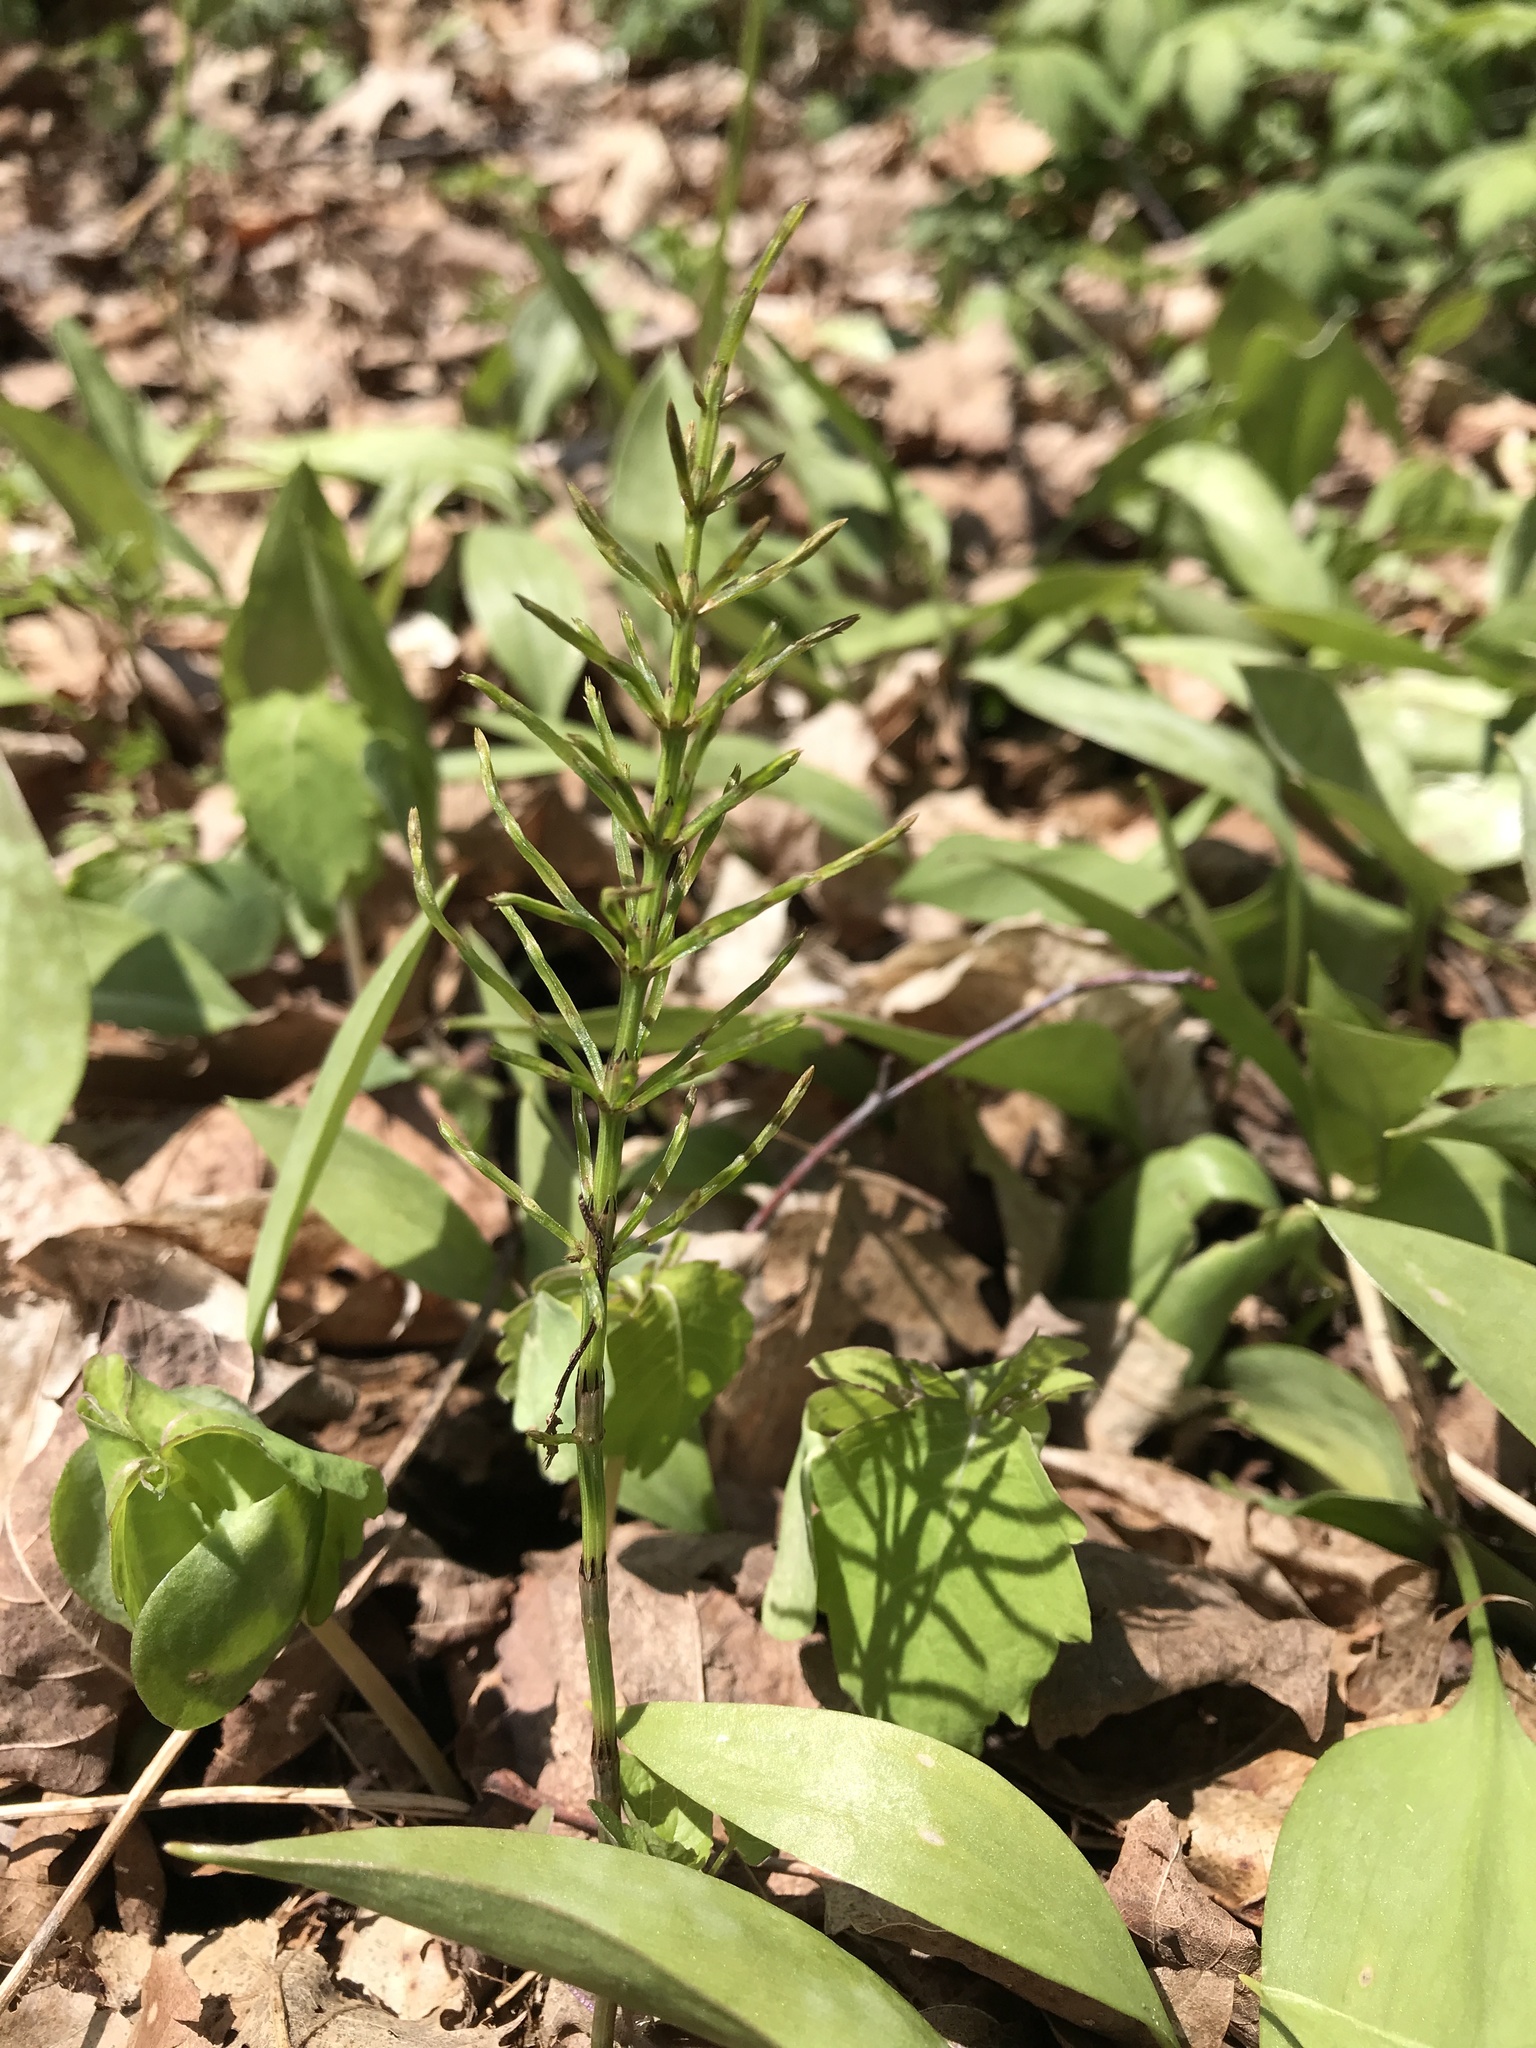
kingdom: Plantae
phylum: Tracheophyta
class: Polypodiopsida
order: Equisetales
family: Equisetaceae
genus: Equisetum
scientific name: Equisetum arvense
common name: Field horsetail
